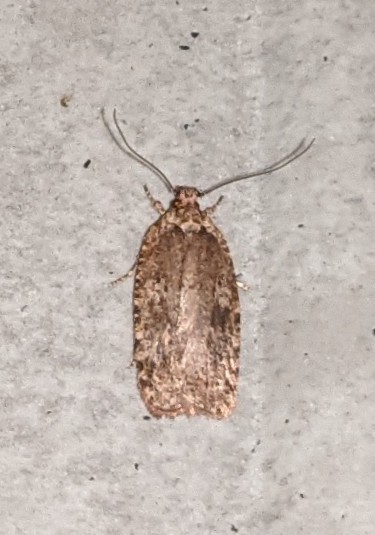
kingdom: Animalia
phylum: Arthropoda
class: Insecta
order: Lepidoptera
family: Depressariidae
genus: Agonopterix
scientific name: Agonopterix pulvipennella
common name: Goldenrod leafffolder
